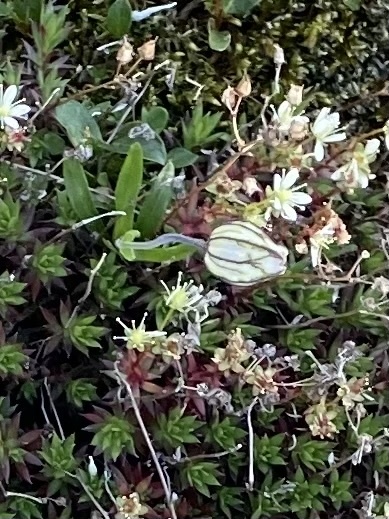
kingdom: Plantae
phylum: Tracheophyta
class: Magnoliopsida
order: Caryophyllales
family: Caryophyllaceae
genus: Silene
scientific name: Silene wahlbergella
